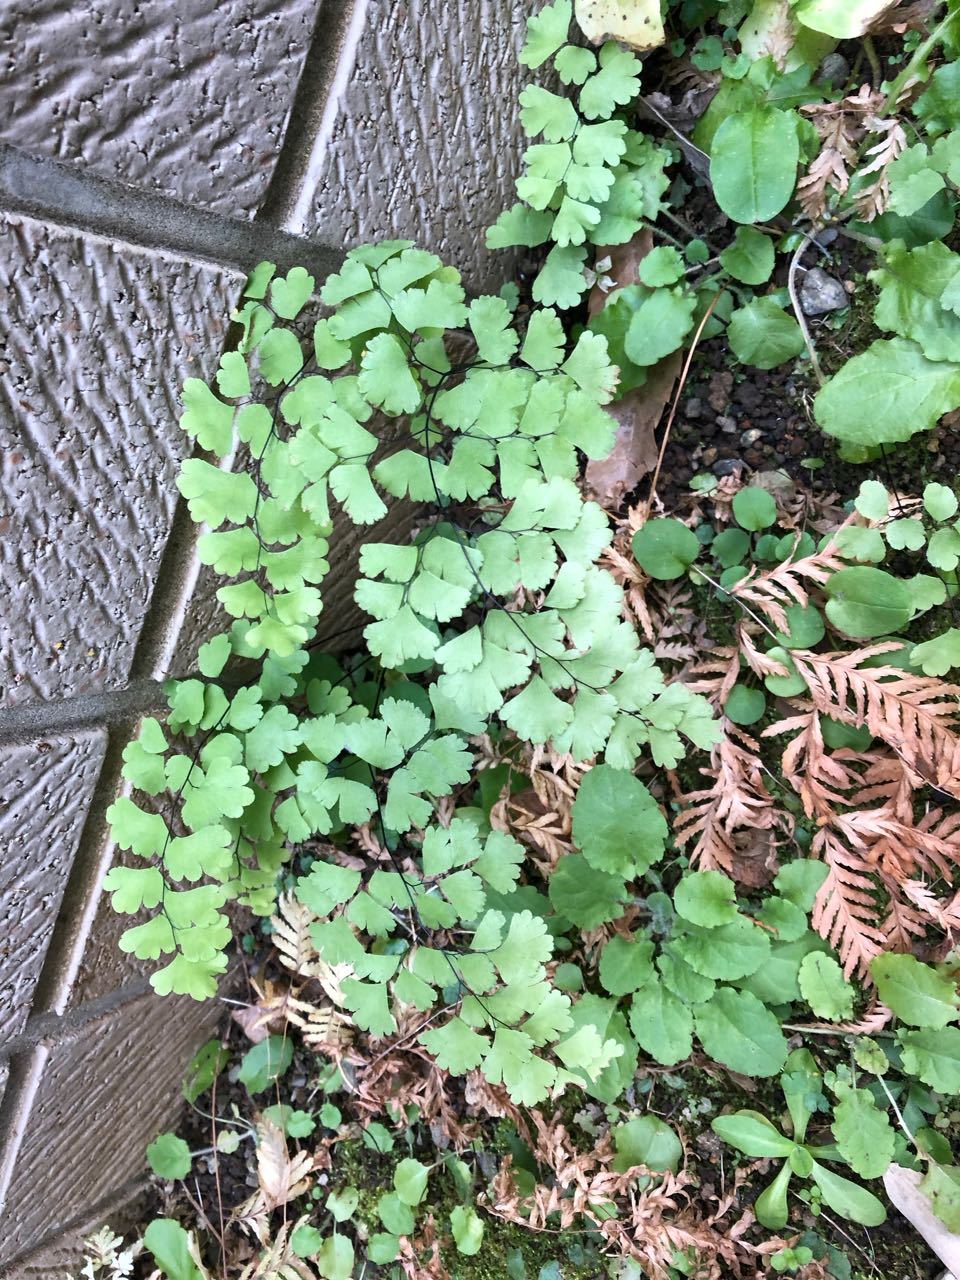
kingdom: Plantae
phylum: Tracheophyta
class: Polypodiopsida
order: Polypodiales
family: Pteridaceae
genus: Adiantum
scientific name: Adiantum capillus-veneris
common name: Maidenhair fern
